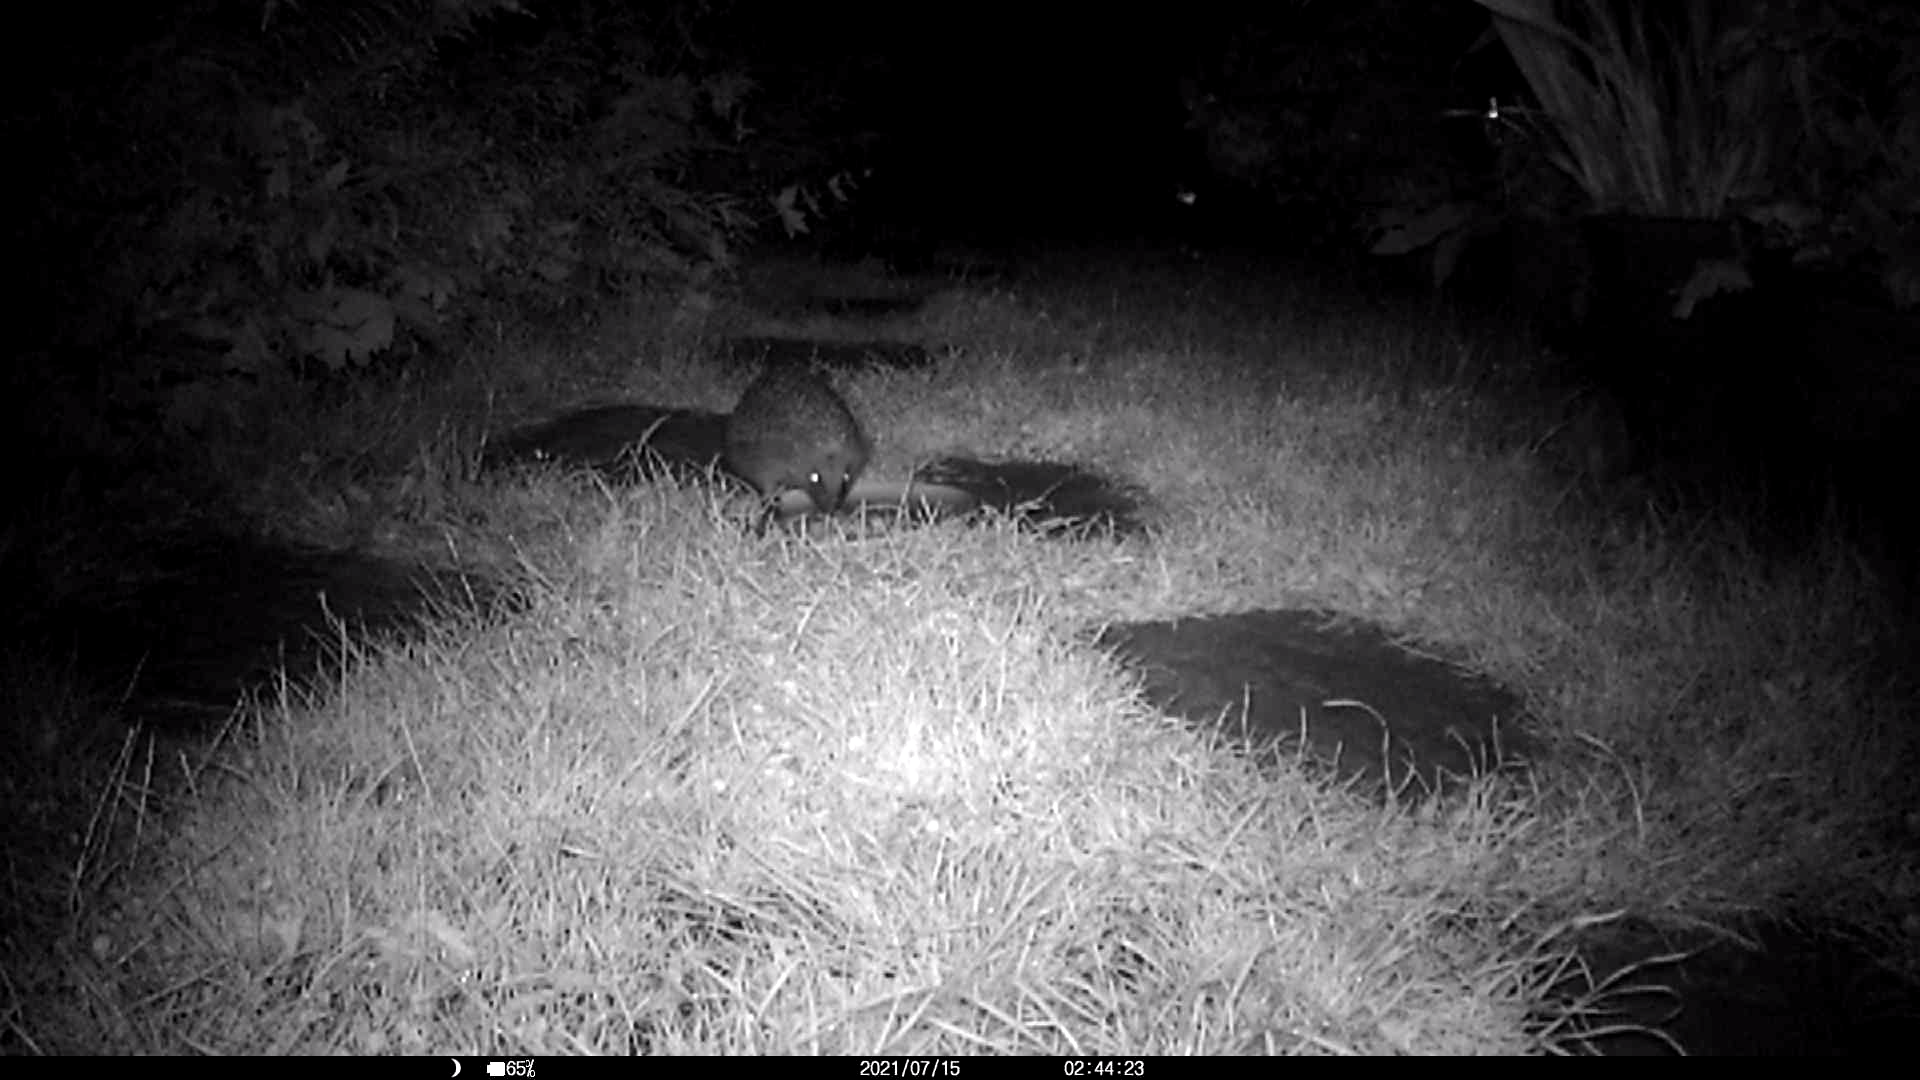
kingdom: Animalia
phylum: Chordata
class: Mammalia
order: Erinaceomorpha
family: Erinaceidae
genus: Erinaceus
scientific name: Erinaceus europaeus
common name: West european hedgehog
